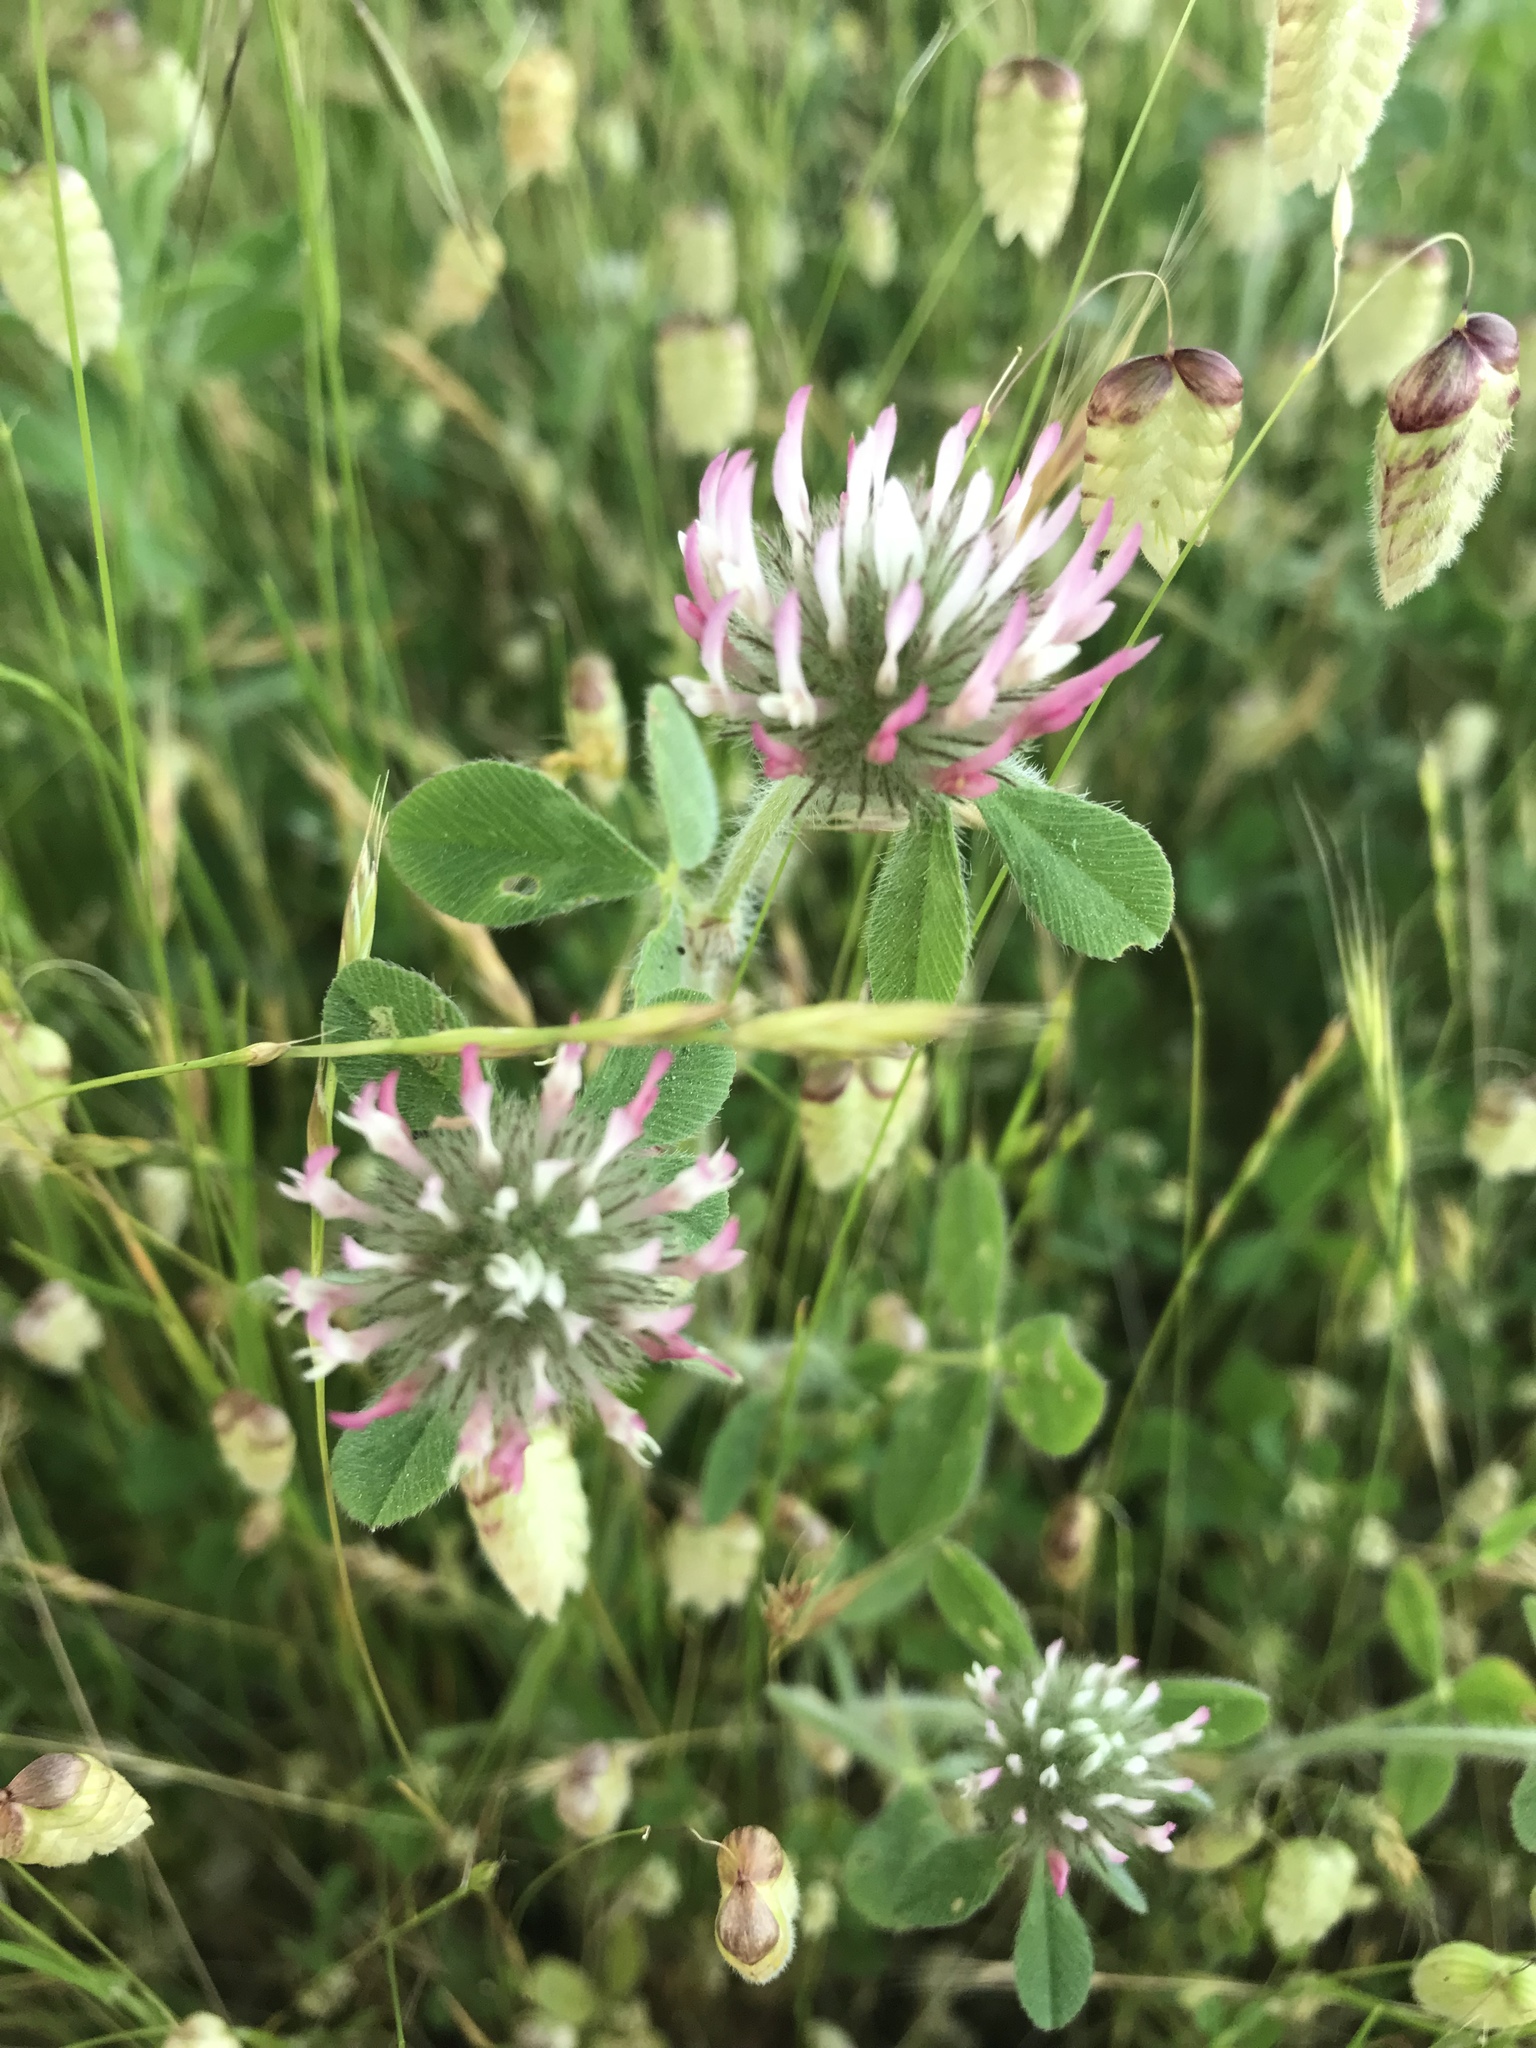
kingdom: Plantae
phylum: Tracheophyta
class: Magnoliopsida
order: Fabales
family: Fabaceae
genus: Trifolium
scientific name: Trifolium hirtum
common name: Rose clover
